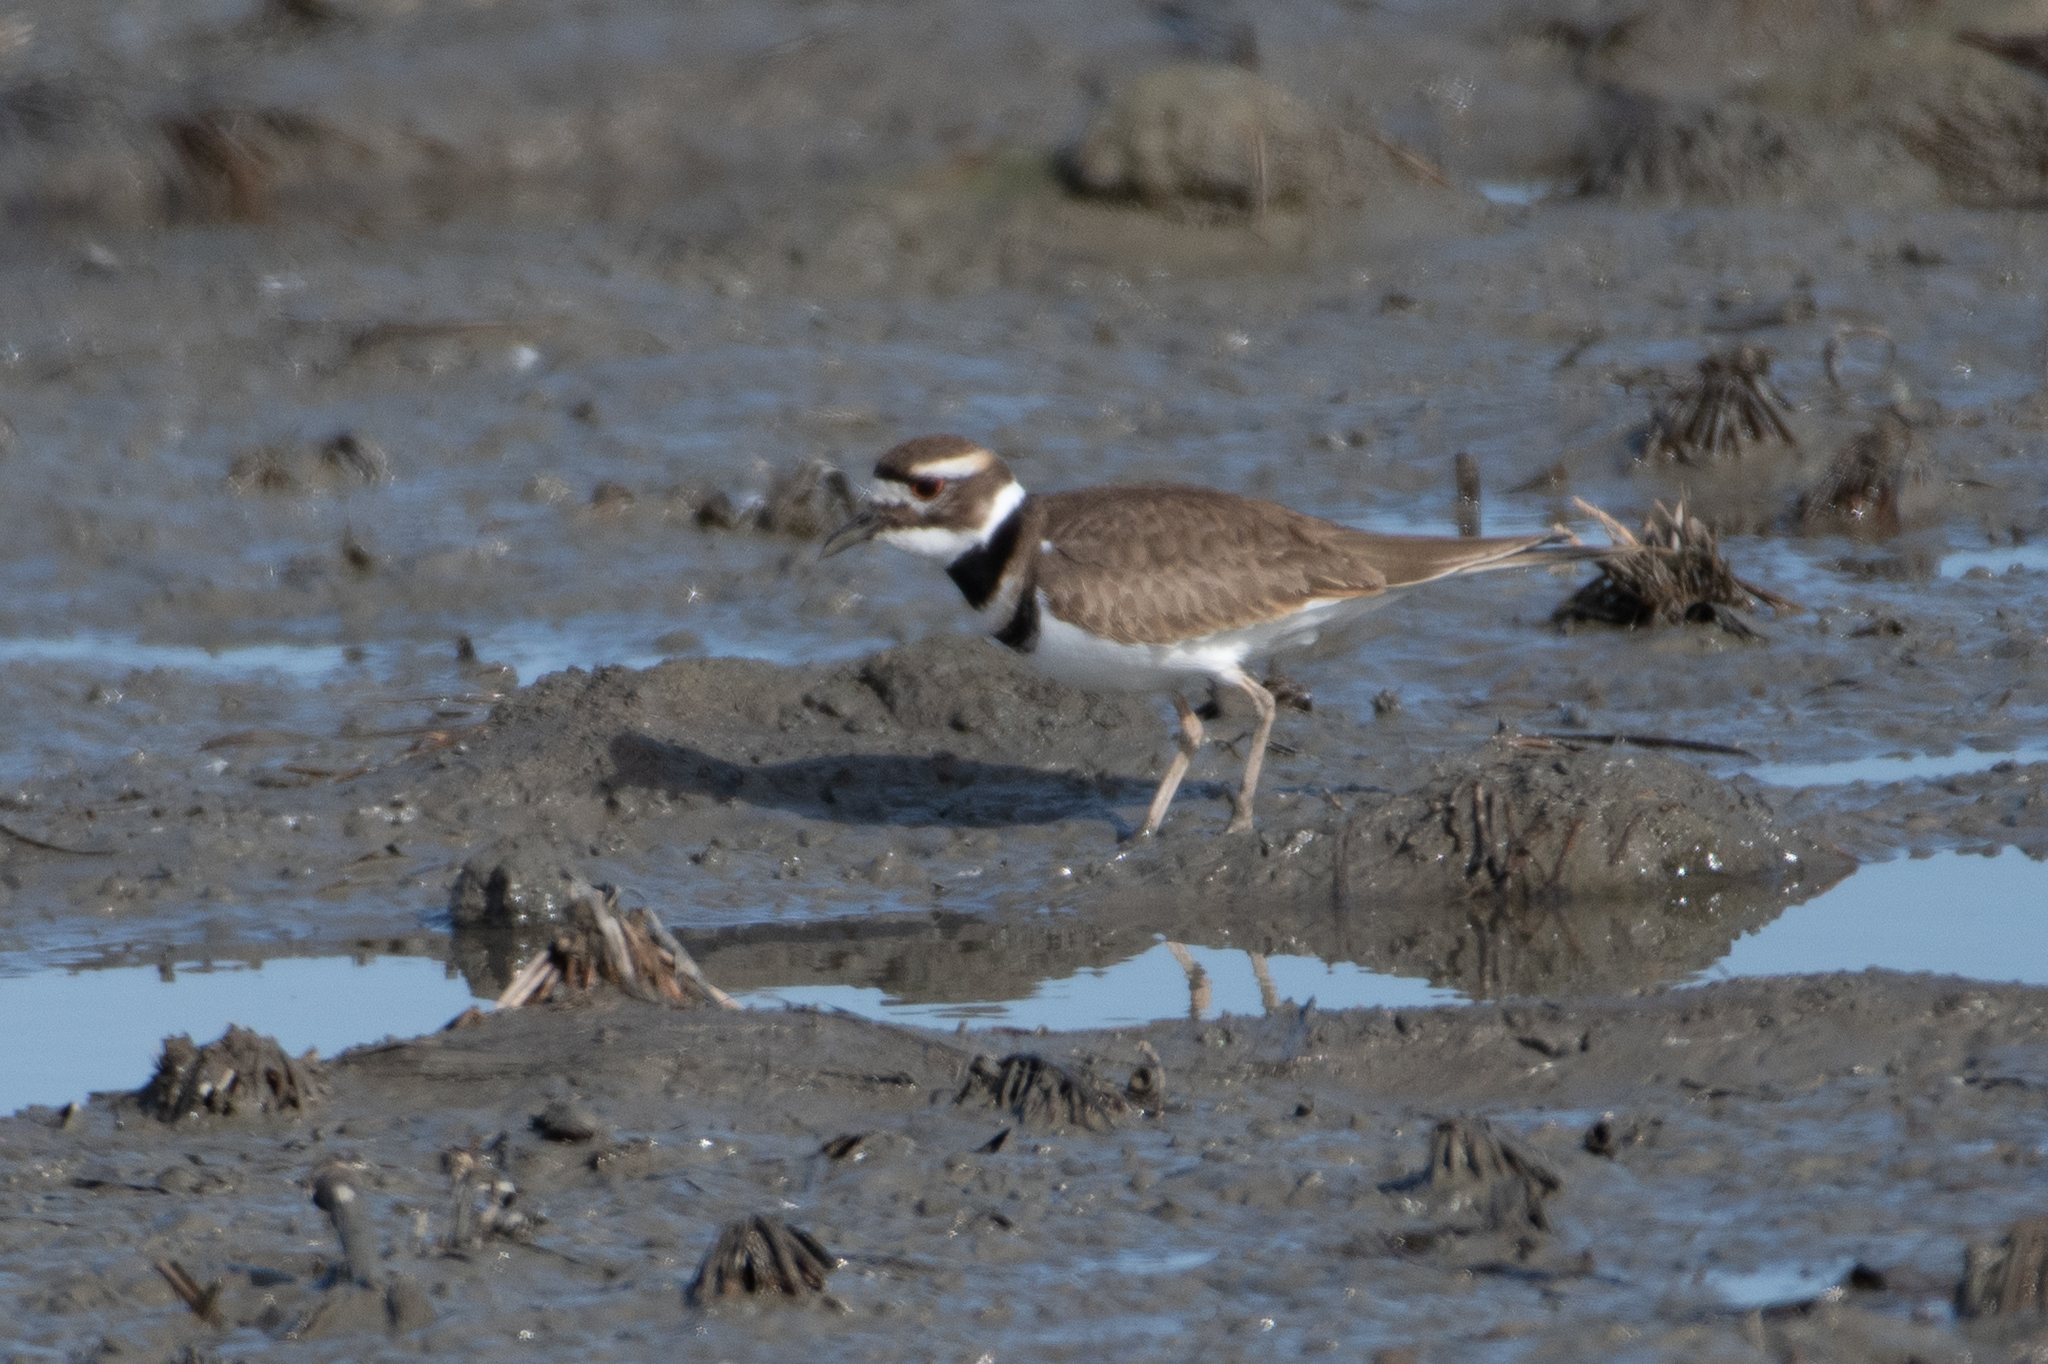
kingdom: Animalia
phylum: Chordata
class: Aves
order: Charadriiformes
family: Charadriidae
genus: Charadrius
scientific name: Charadrius vociferus
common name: Killdeer
